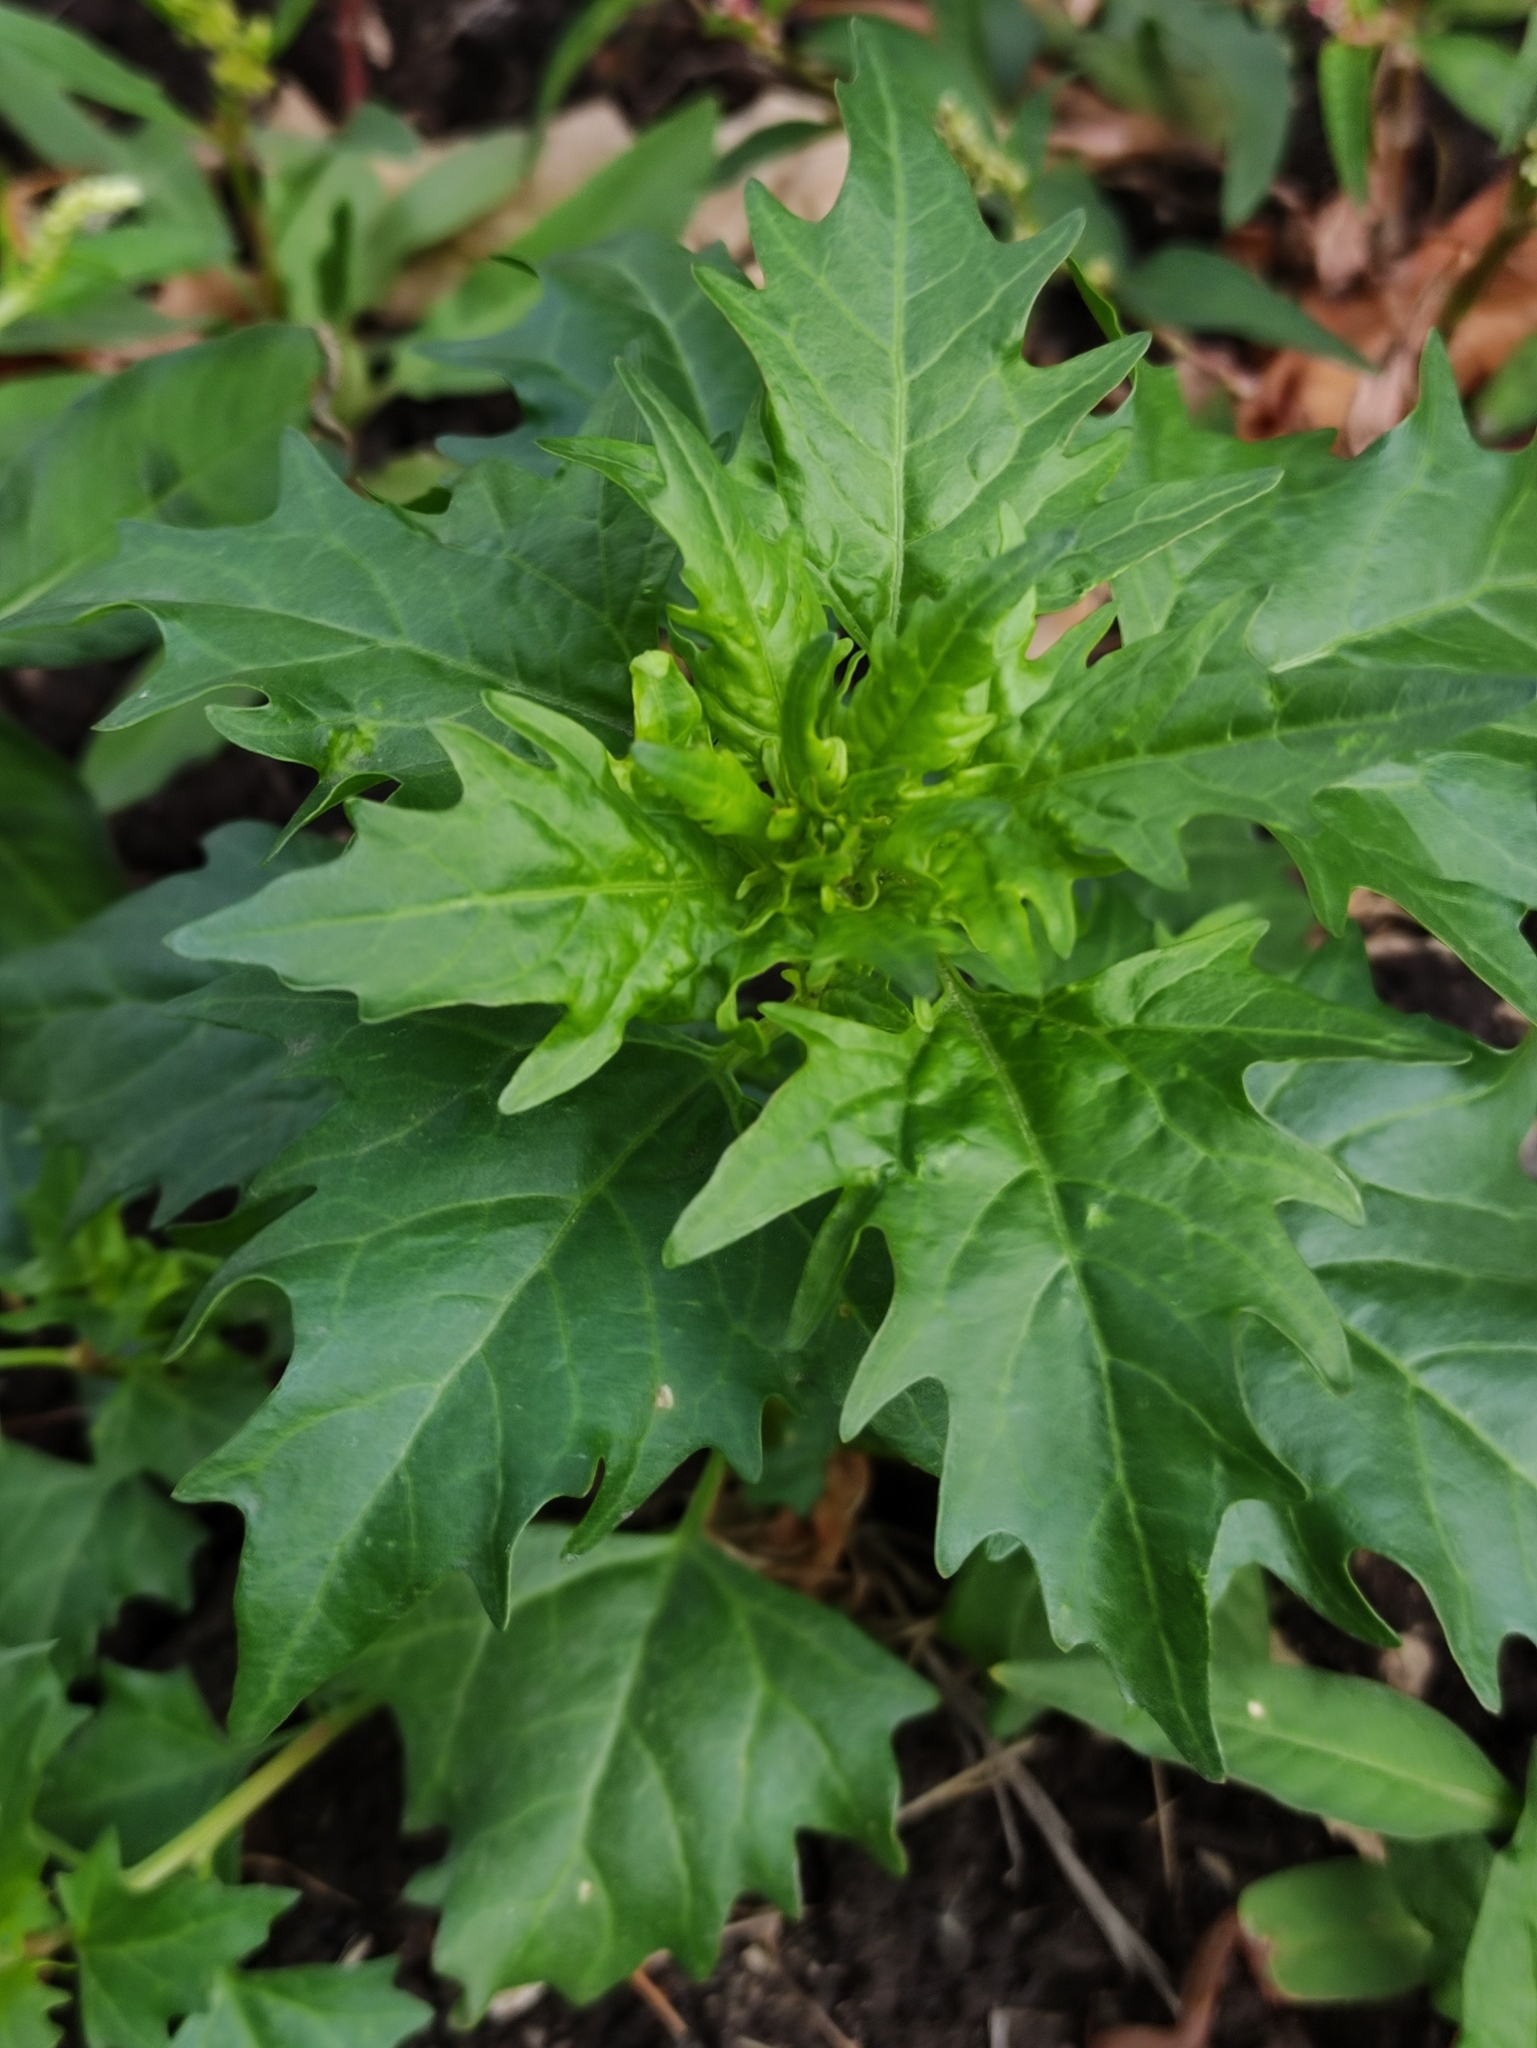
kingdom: Plantae
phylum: Tracheophyta
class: Magnoliopsida
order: Caryophyllales
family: Amaranthaceae
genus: Oxybasis
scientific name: Oxybasis rubra
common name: Red goosefoot
